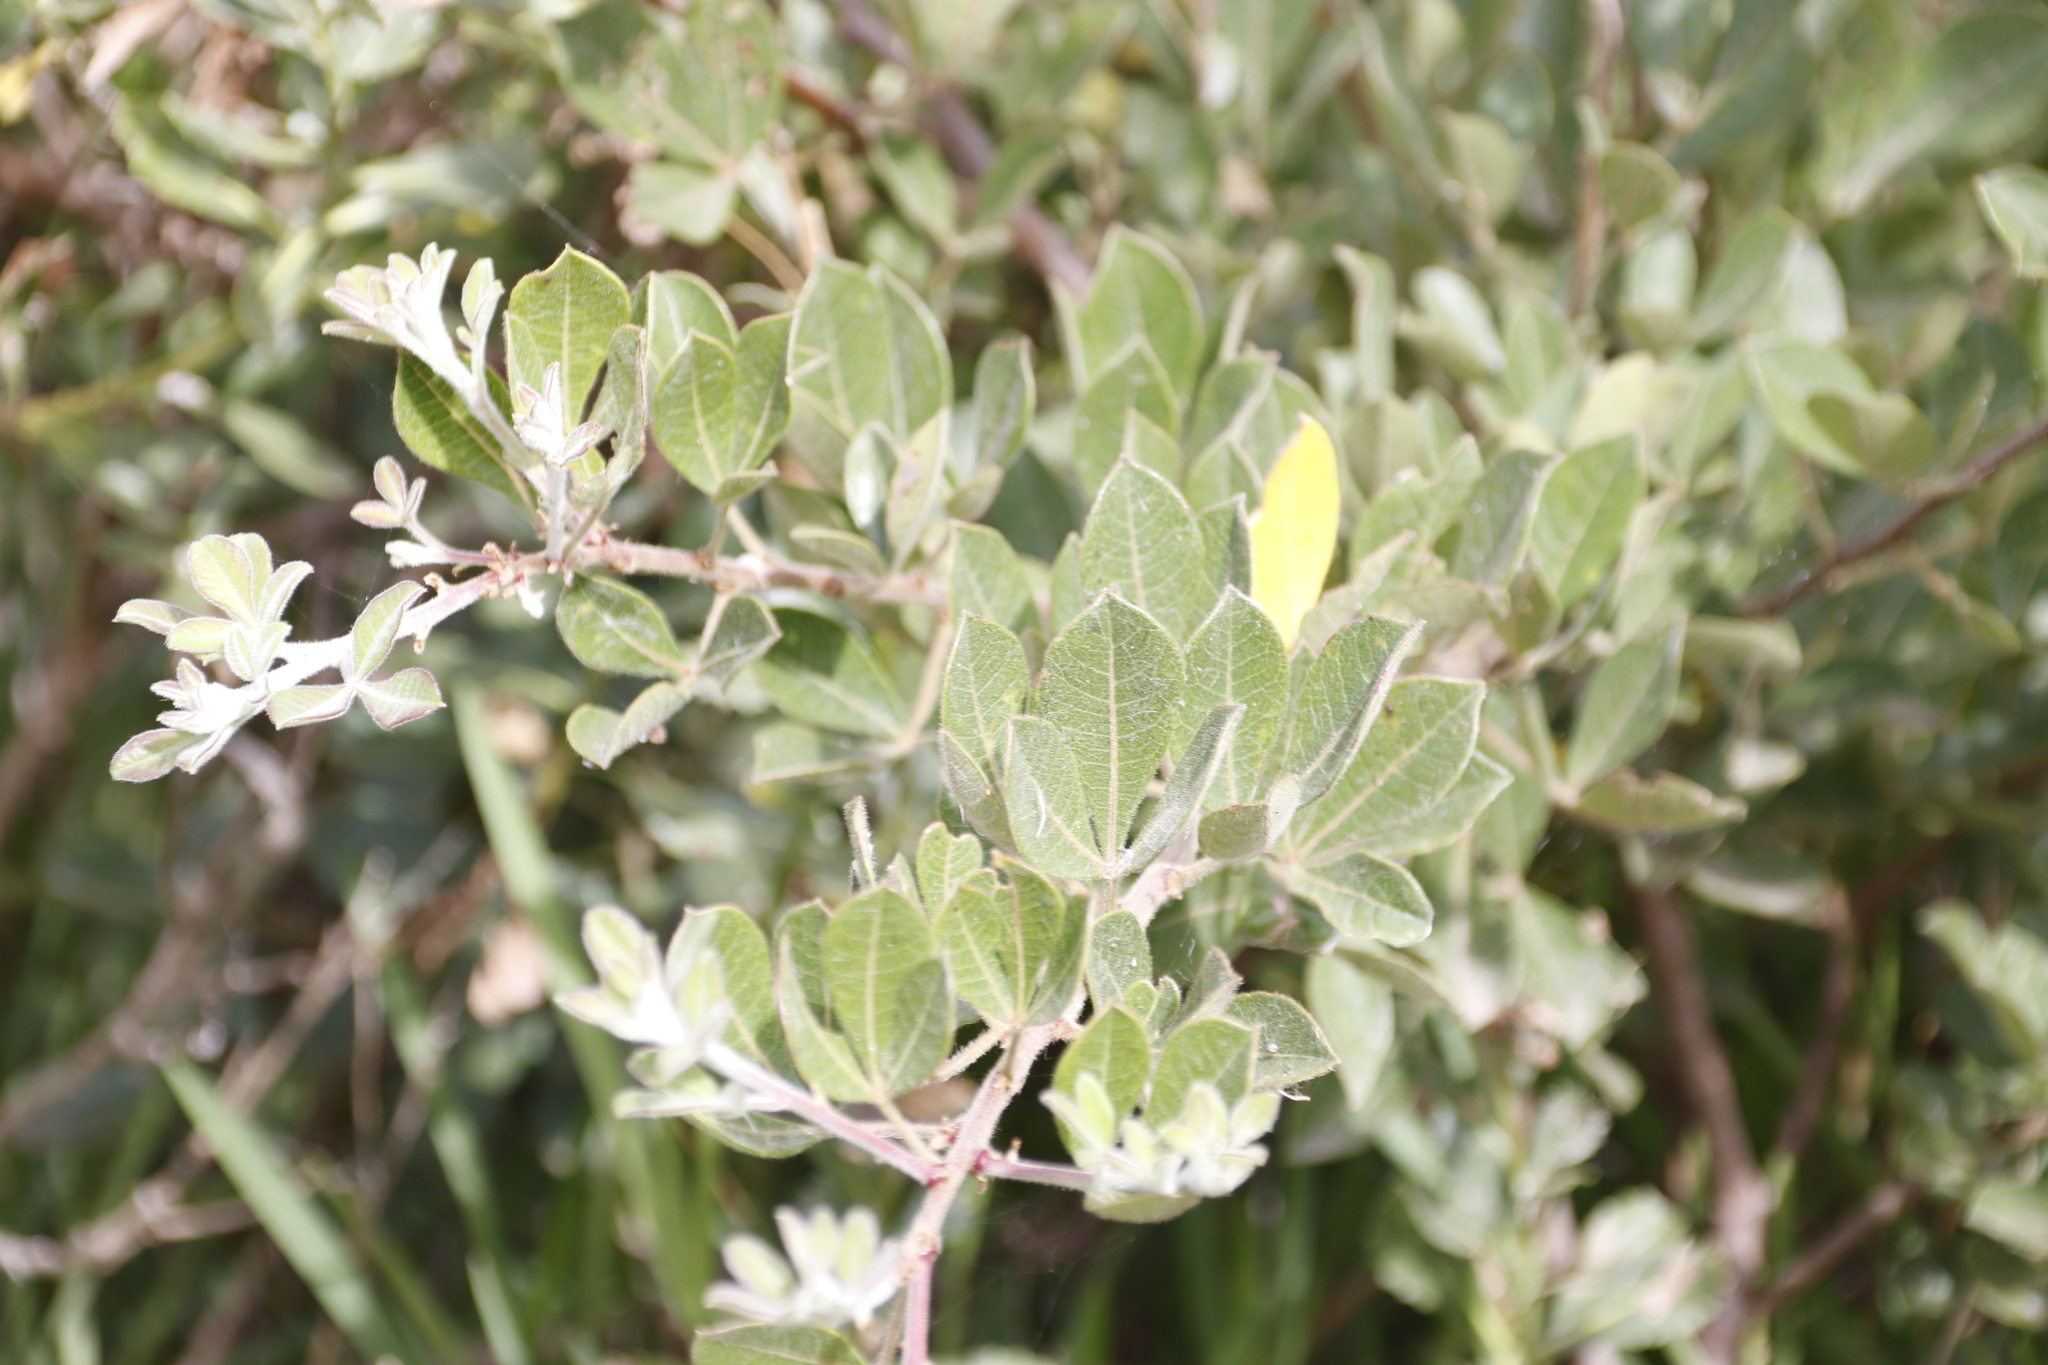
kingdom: Plantae
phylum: Tracheophyta
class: Magnoliopsida
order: Sapindales
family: Anacardiaceae
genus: Searsia
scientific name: Searsia laevigata
